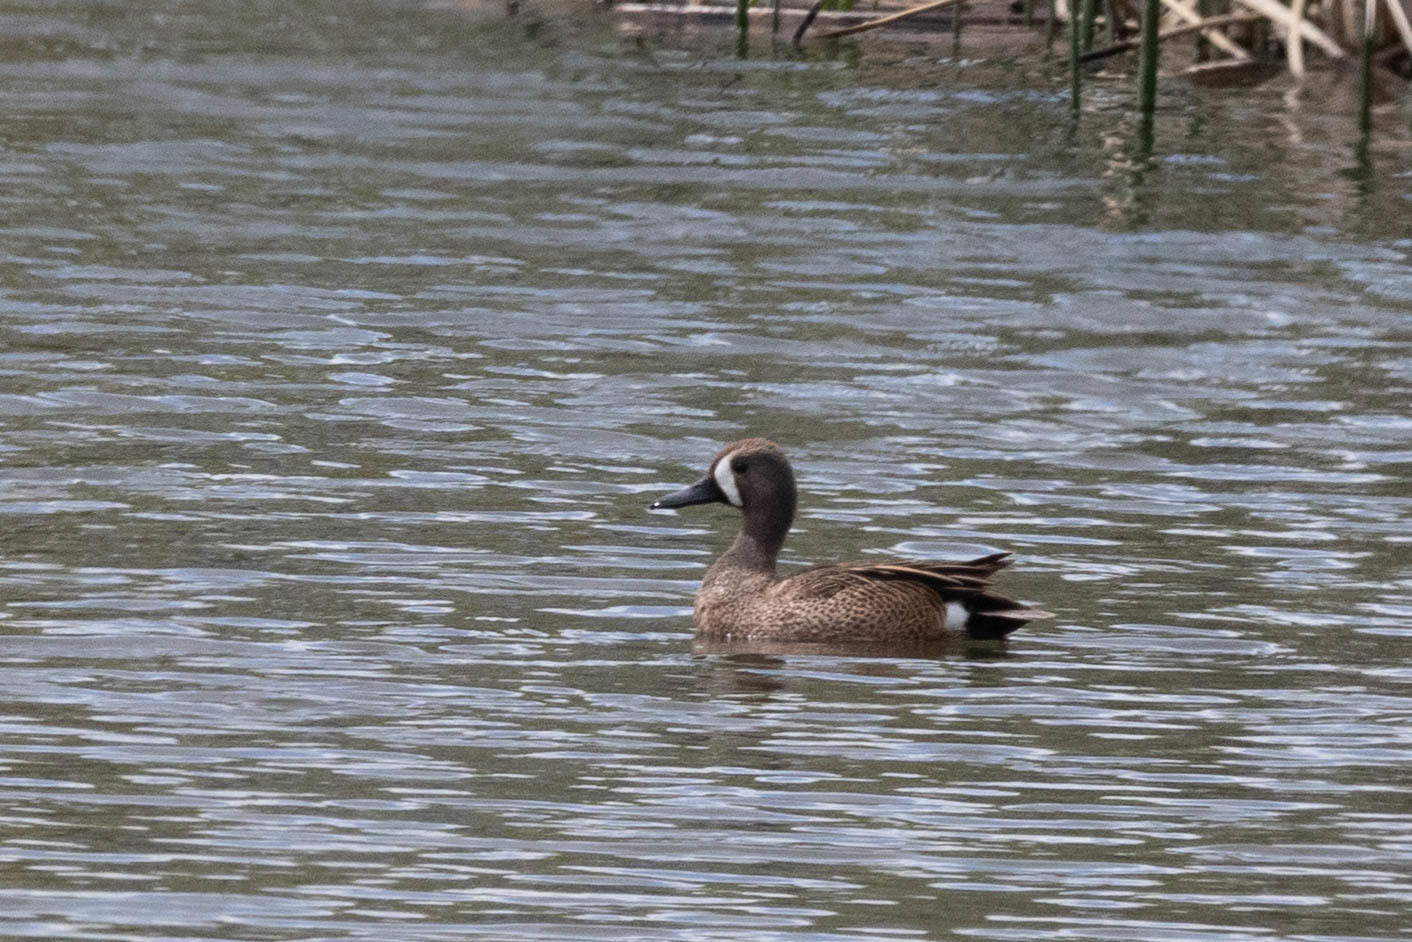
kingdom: Animalia
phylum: Chordata
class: Aves
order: Anseriformes
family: Anatidae
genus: Spatula
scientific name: Spatula discors
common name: Blue-winged teal
